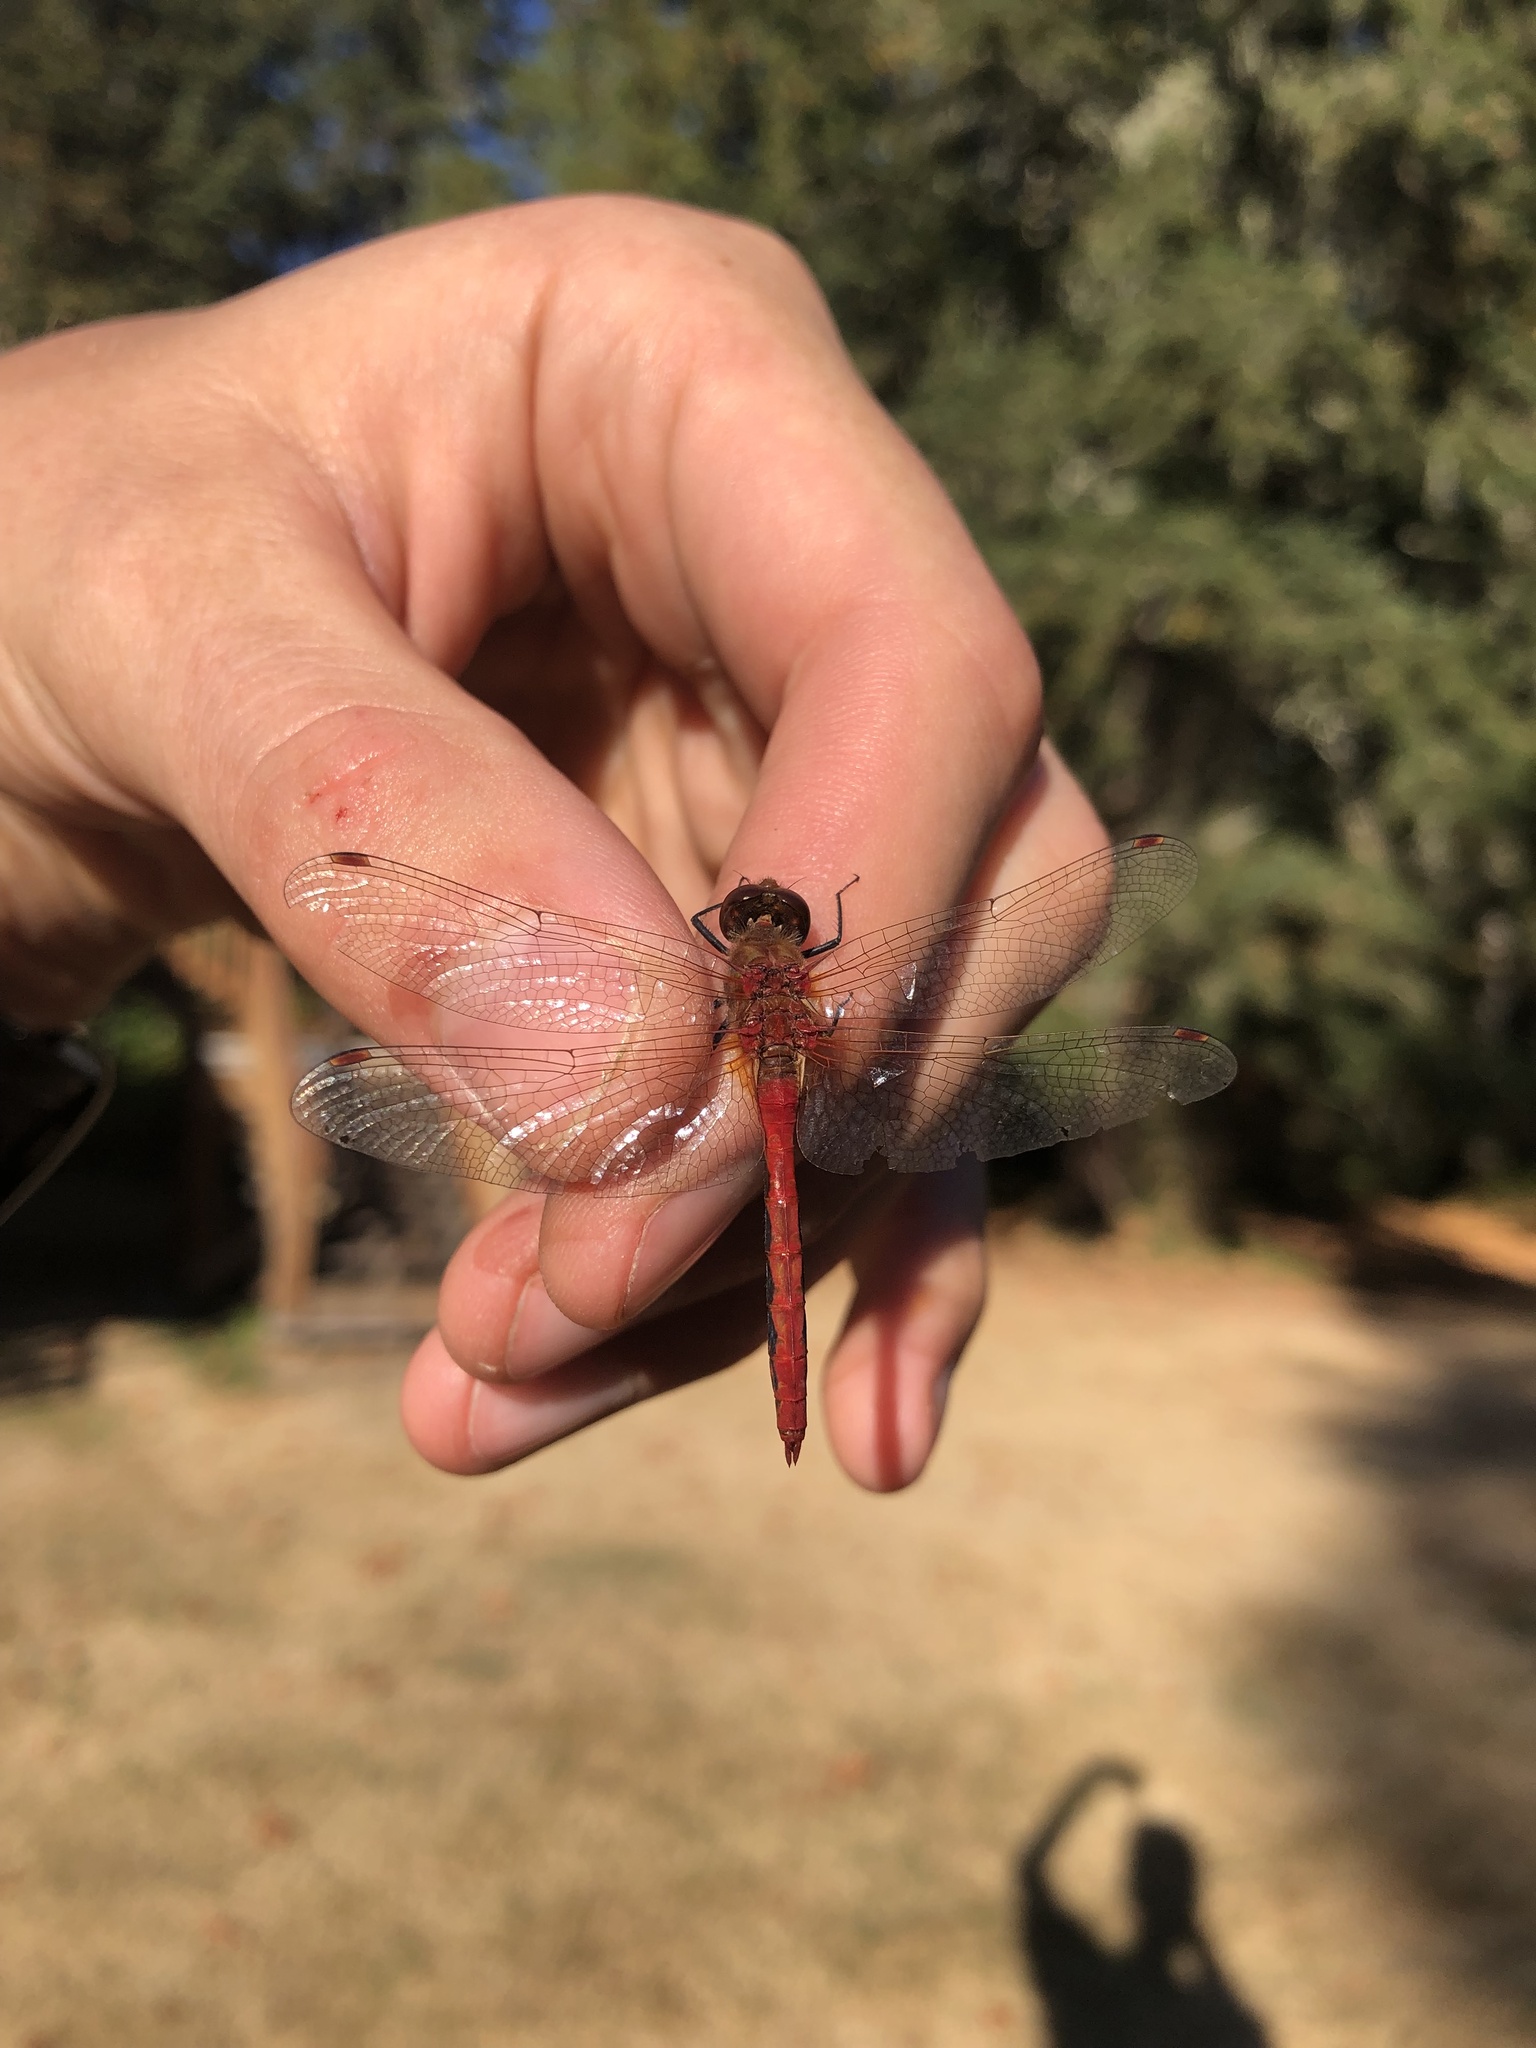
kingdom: Animalia
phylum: Arthropoda
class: Insecta
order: Odonata
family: Libellulidae
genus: Sympetrum
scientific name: Sympetrum pallipes
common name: Striped meadowhawk
